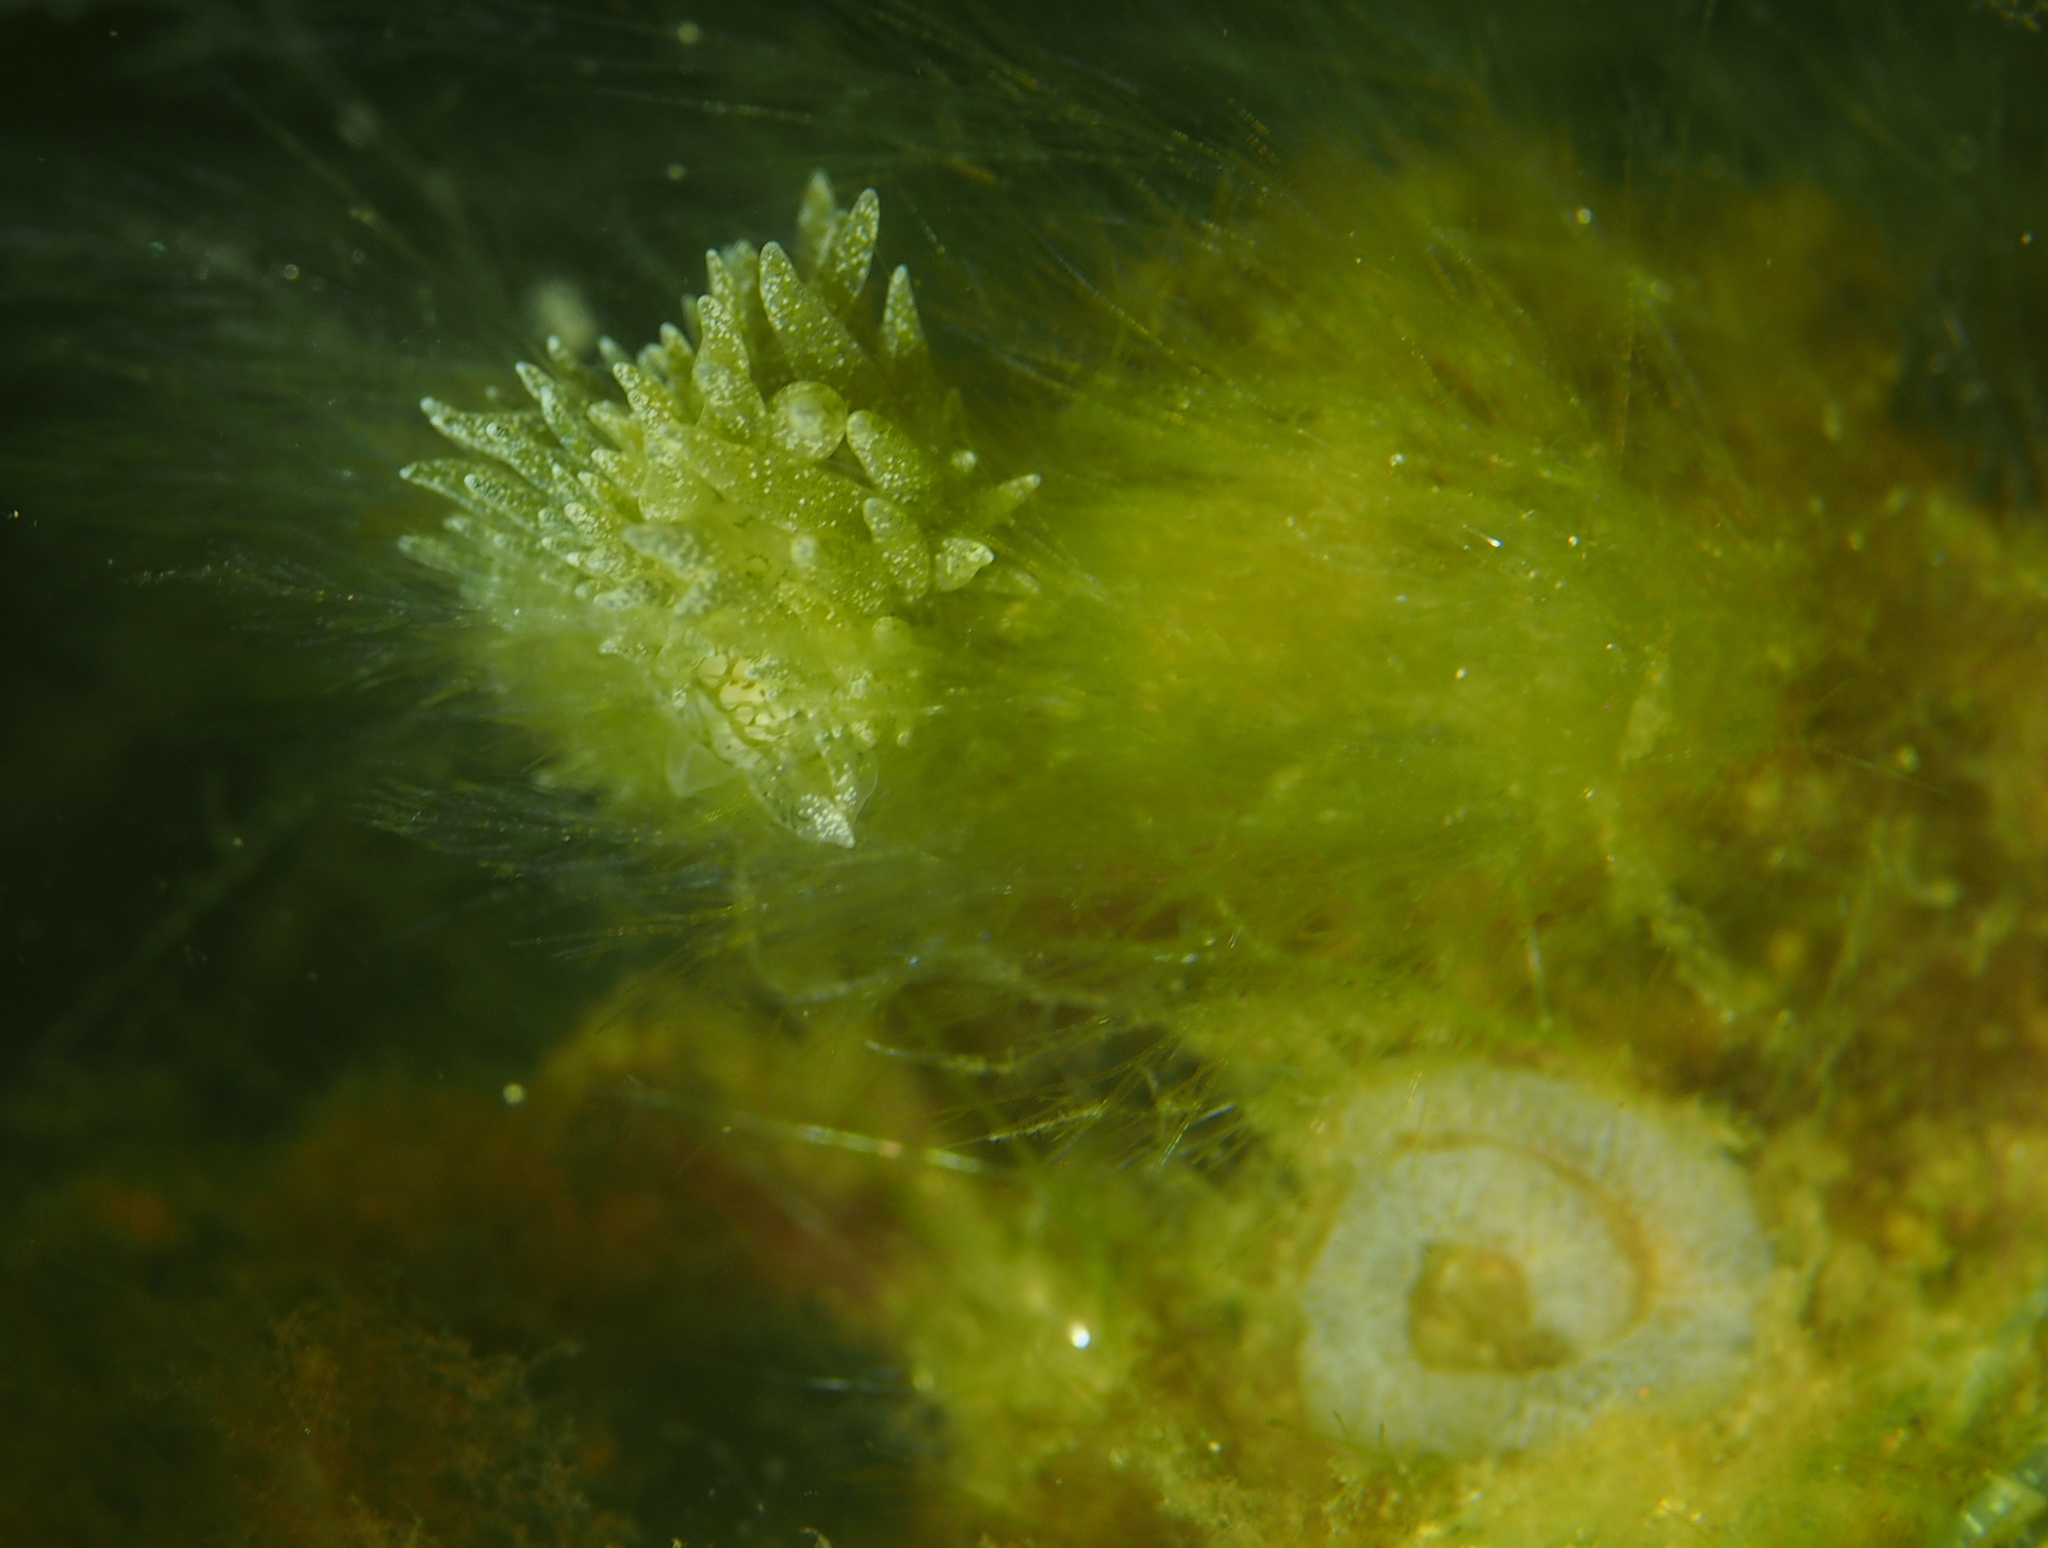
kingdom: Animalia
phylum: Mollusca
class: Gastropoda
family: Limapontiidae
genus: Placida
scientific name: Placida dendritica
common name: Dendritic nudibranch
